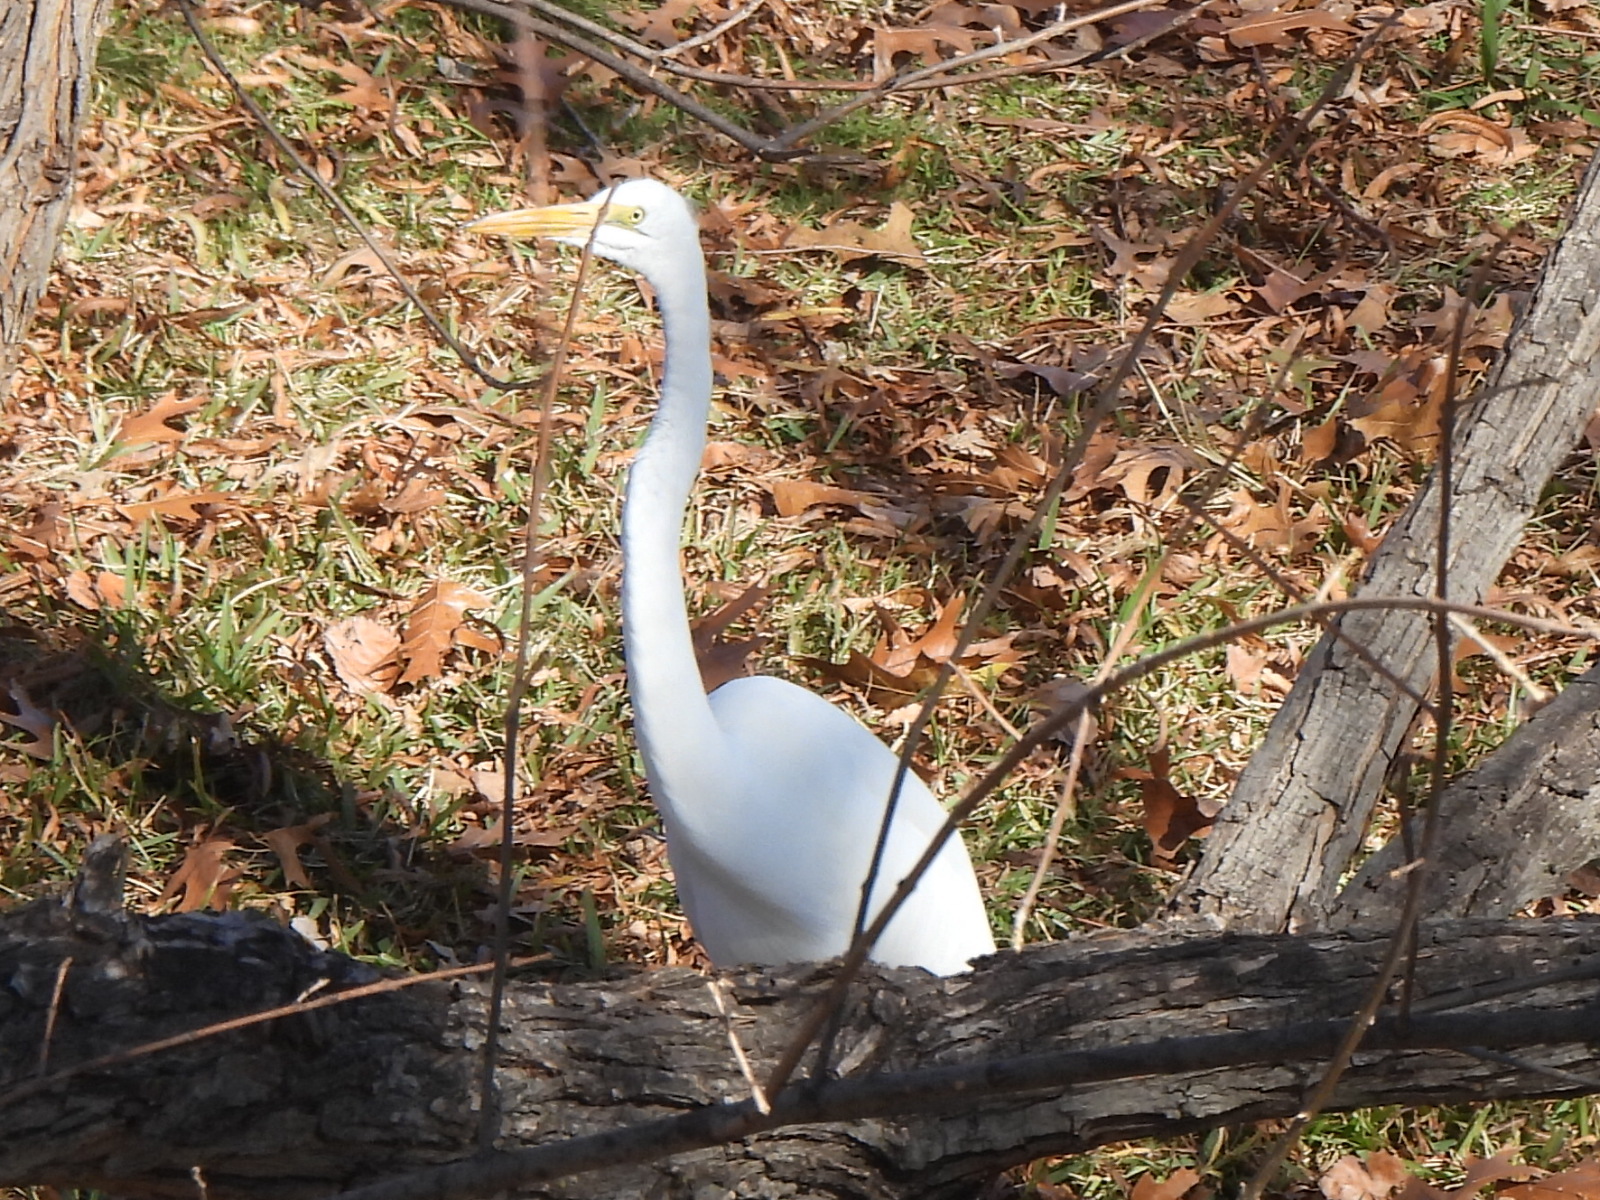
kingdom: Animalia
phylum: Chordata
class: Aves
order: Pelecaniformes
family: Ardeidae
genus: Ardea
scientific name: Ardea alba
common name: Great egret
